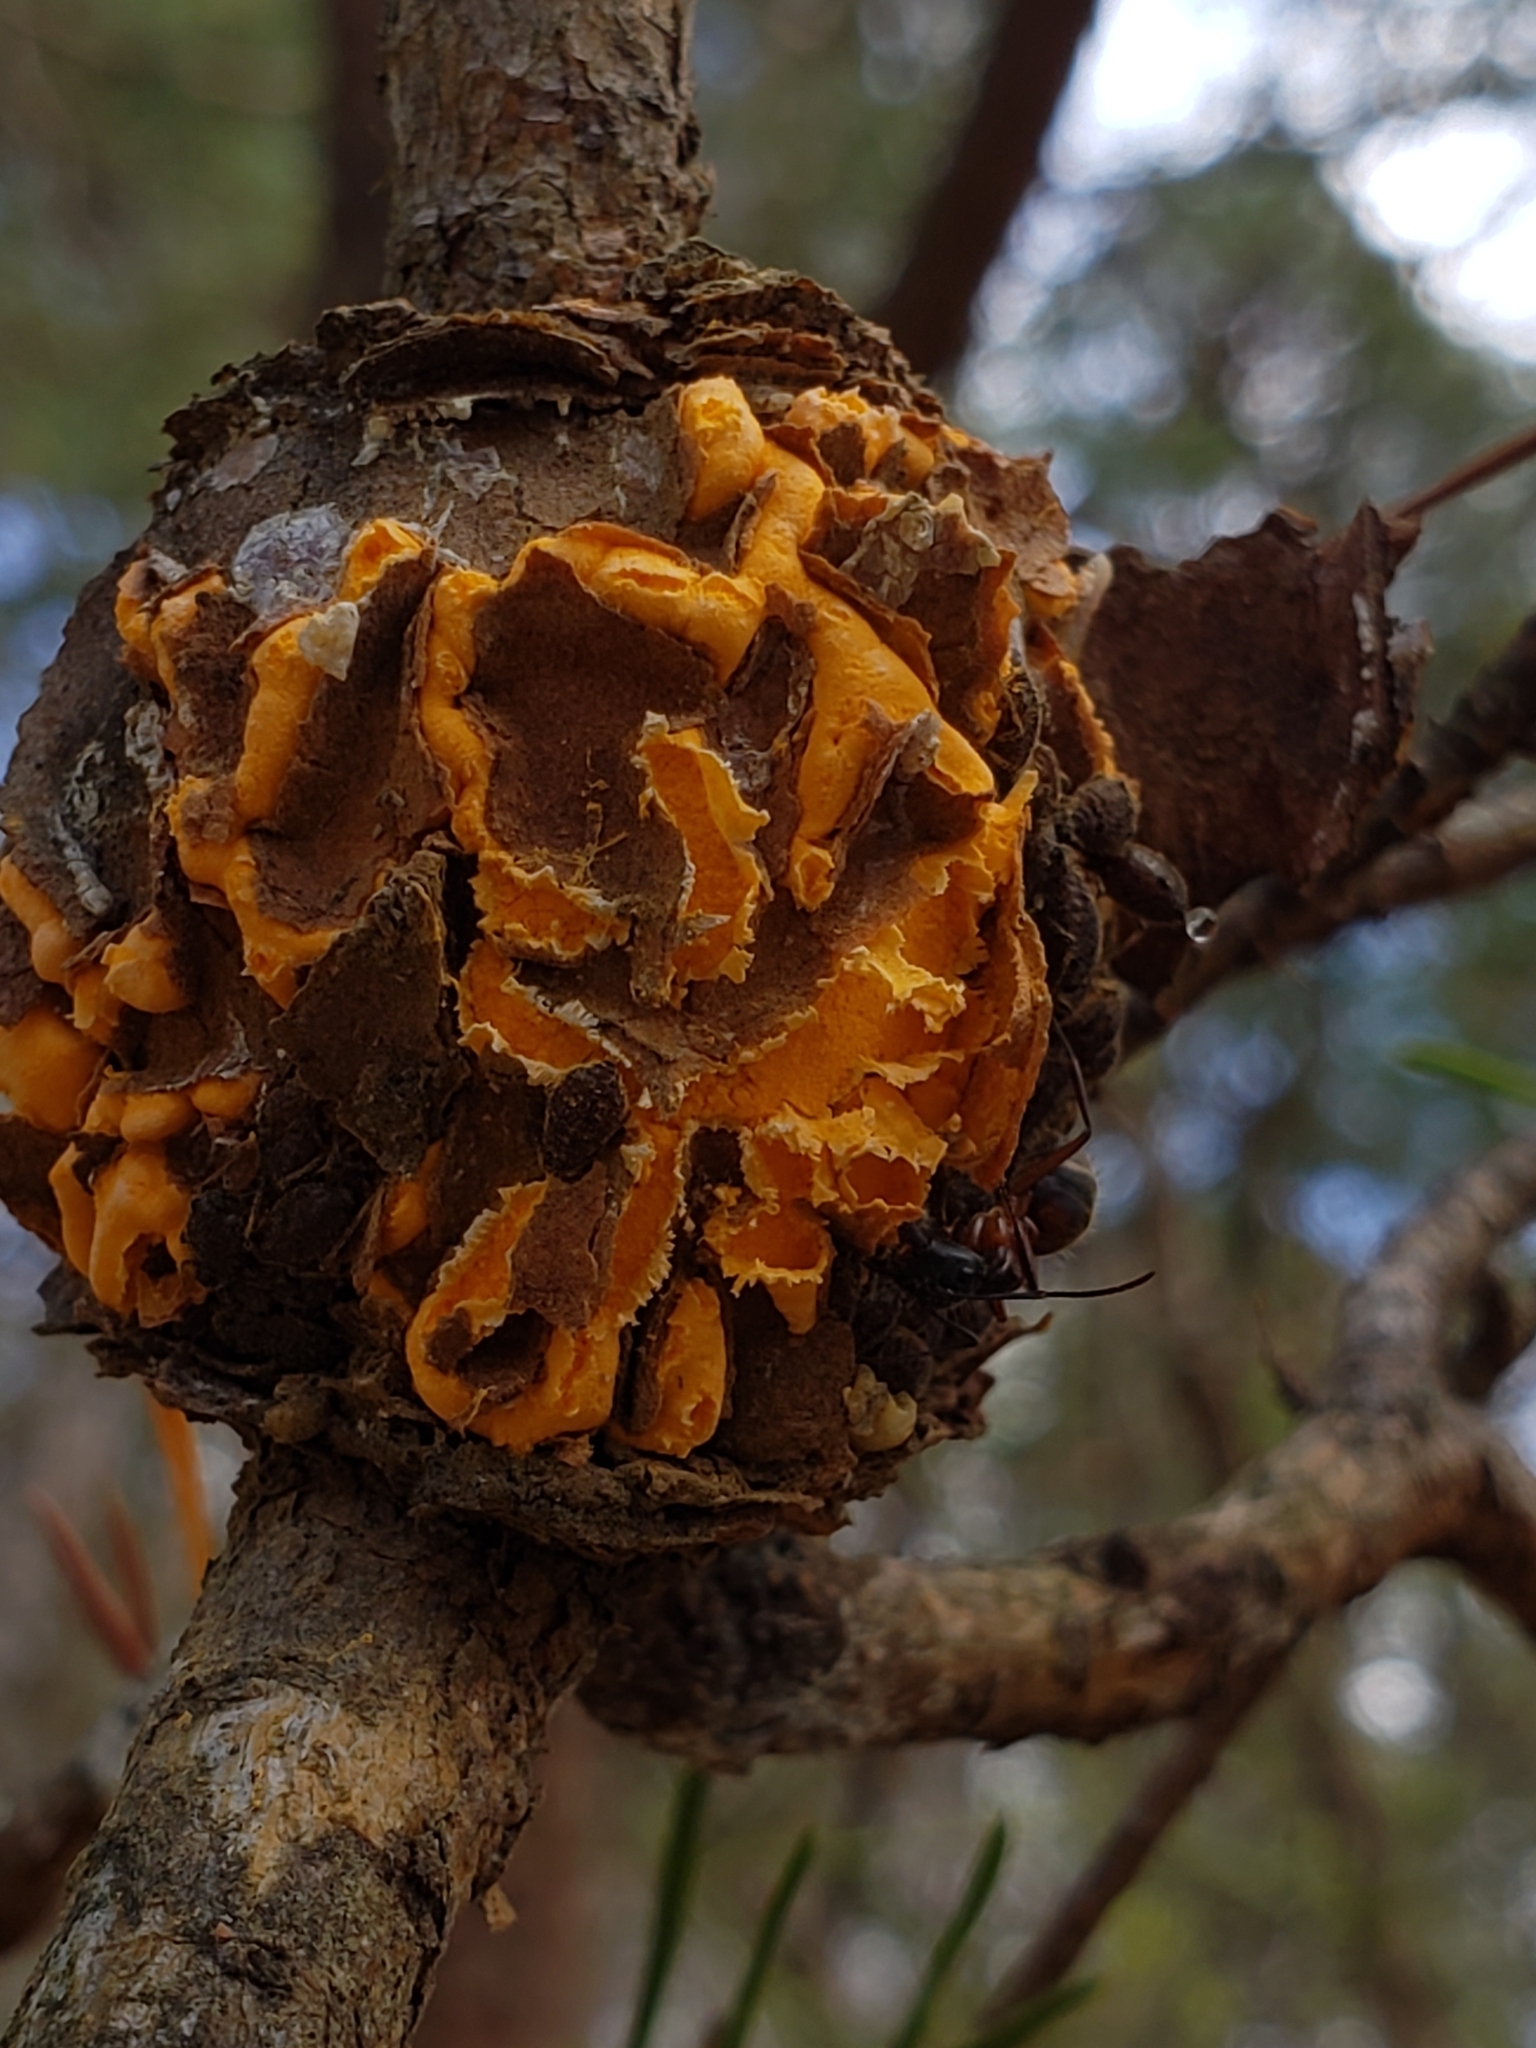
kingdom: Fungi
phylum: Basidiomycota
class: Pucciniomycetes
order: Pucciniales
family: Cronartiaceae
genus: Cronartium
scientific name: Cronartium quercuum
